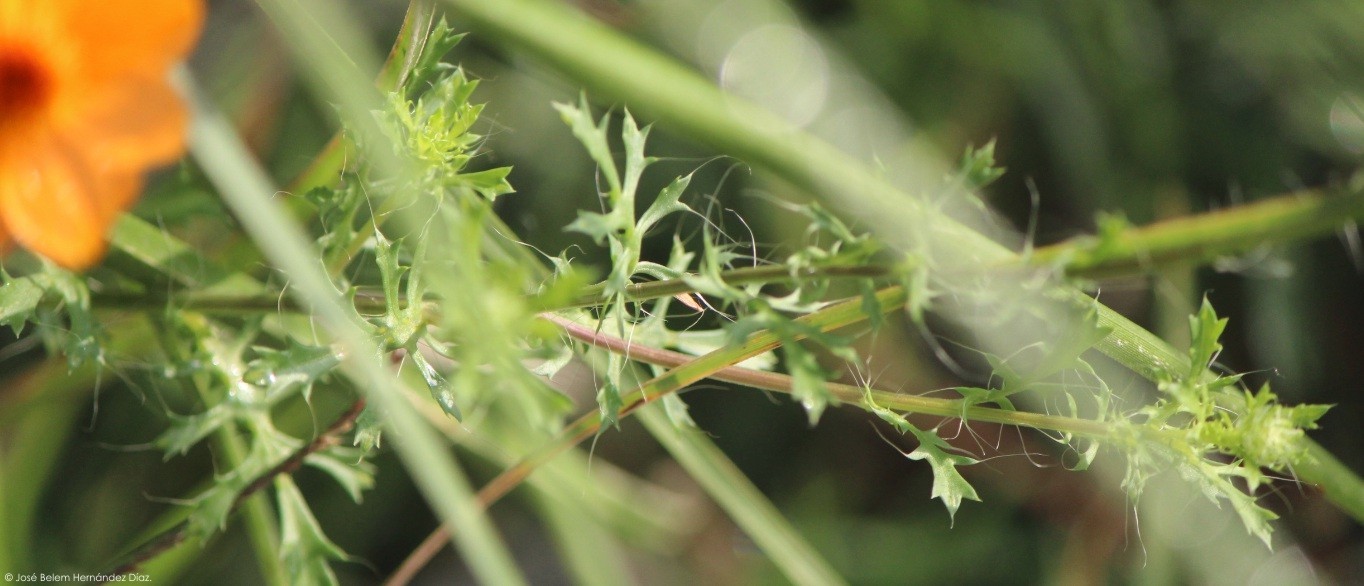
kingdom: Plantae
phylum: Tracheophyta
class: Magnoliopsida
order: Asterales
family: Asteraceae
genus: Adenophyllum
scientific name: Adenophyllum cancellatum
